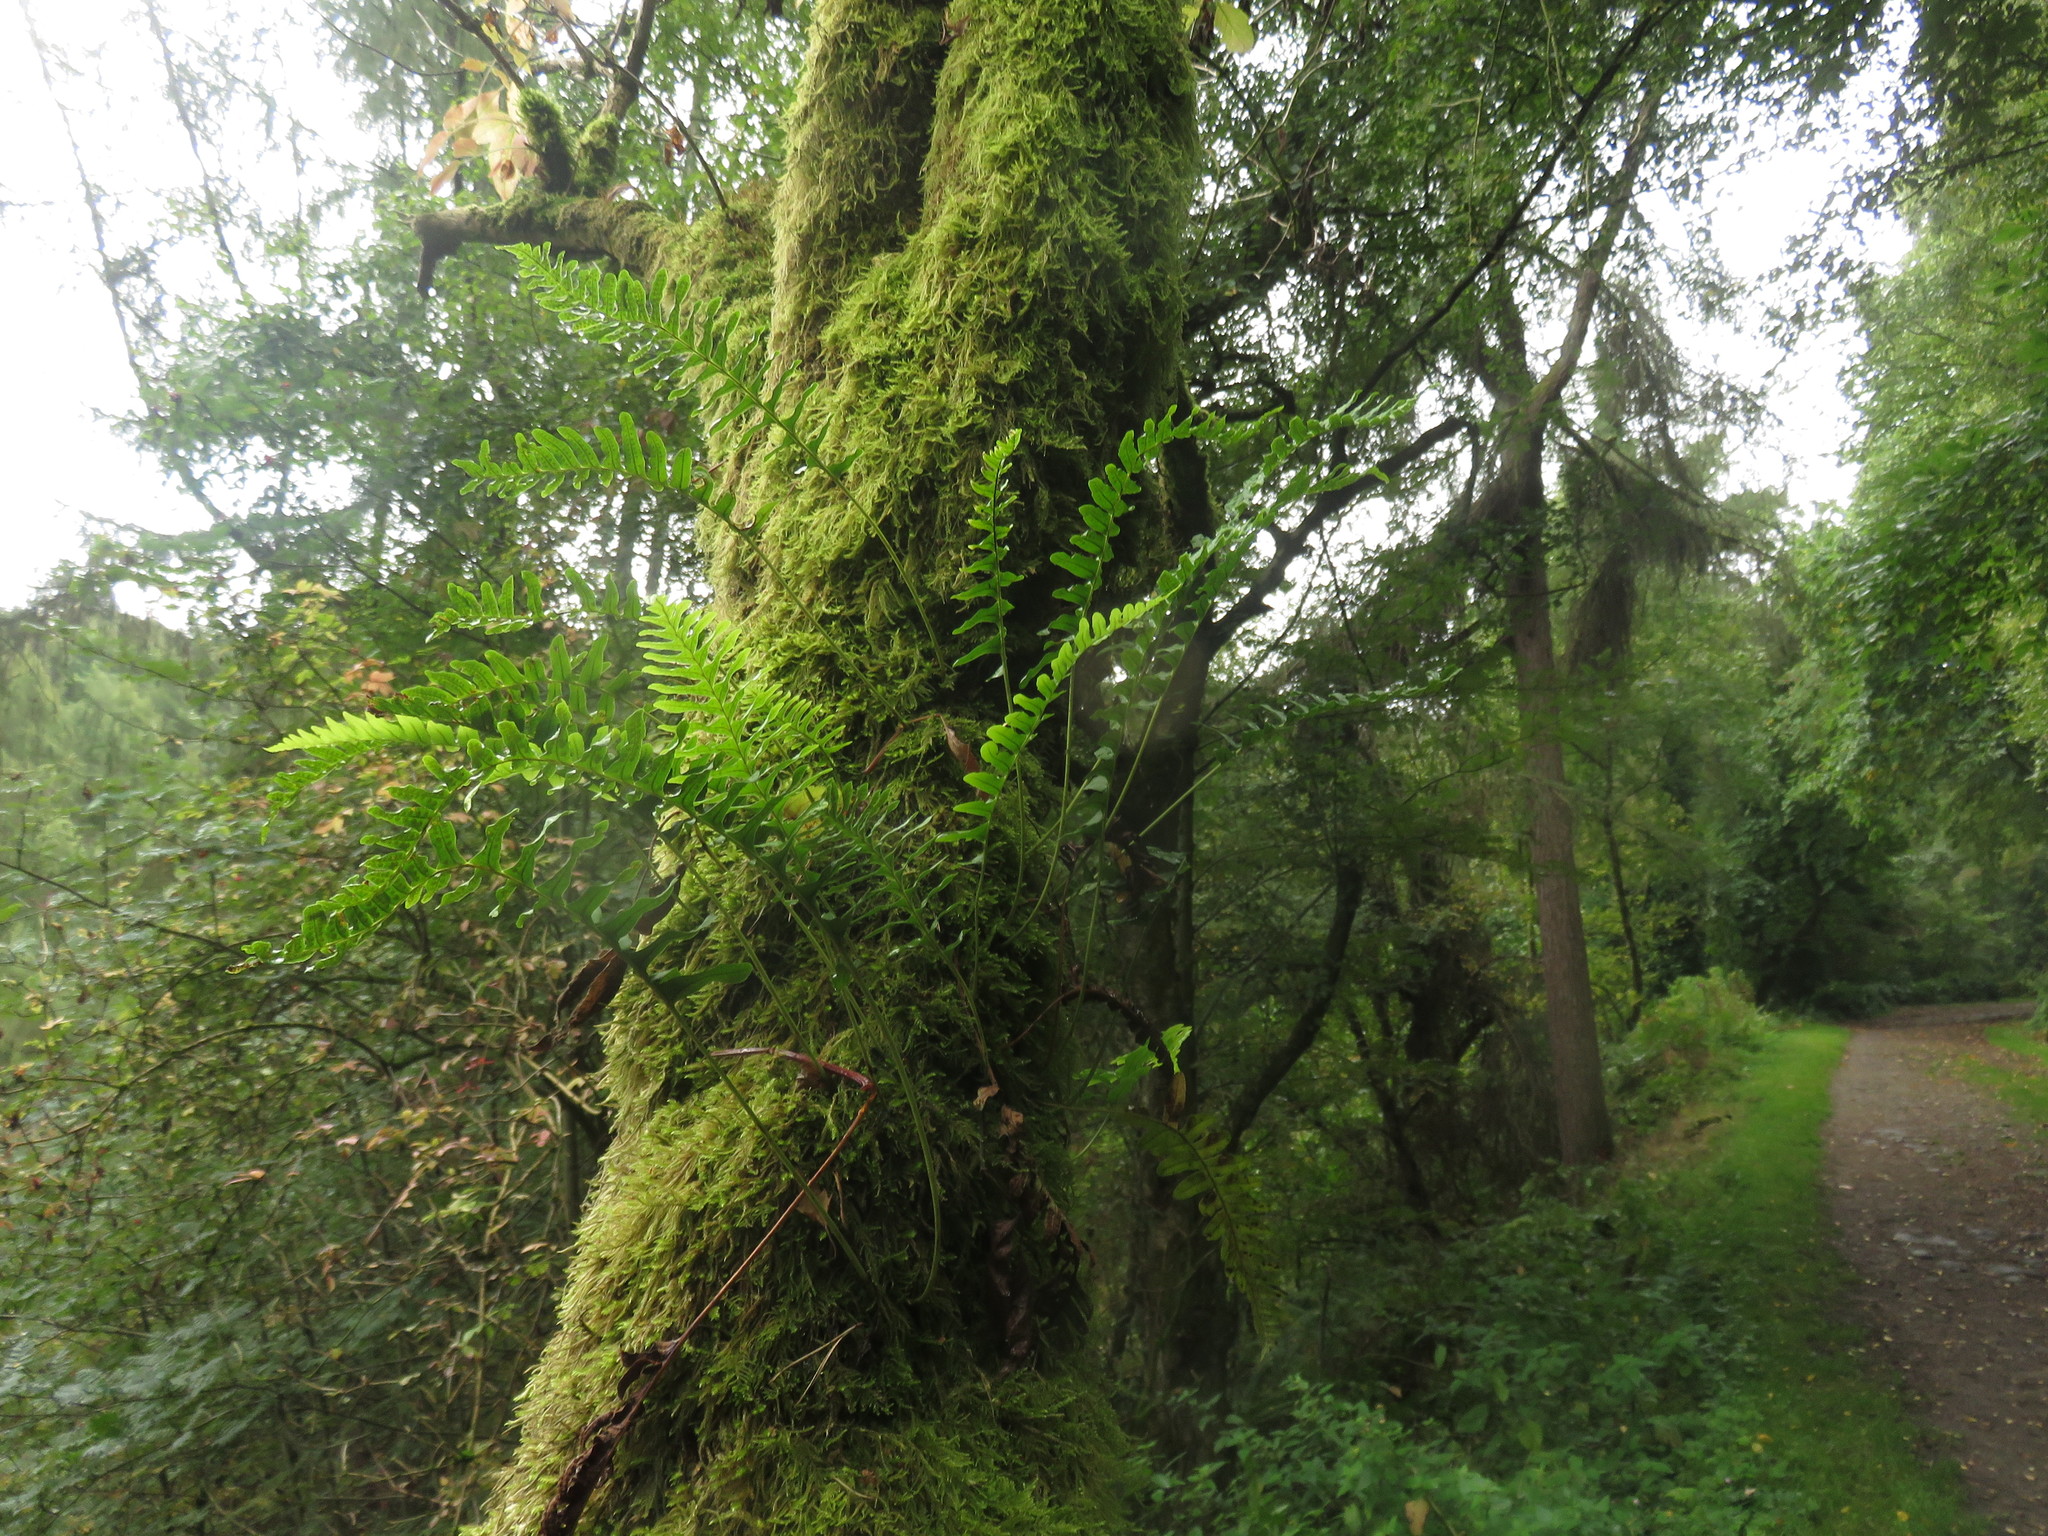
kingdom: Plantae
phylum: Tracheophyta
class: Polypodiopsida
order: Polypodiales
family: Polypodiaceae
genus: Polypodium
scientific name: Polypodium vulgare
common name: Common polypody
